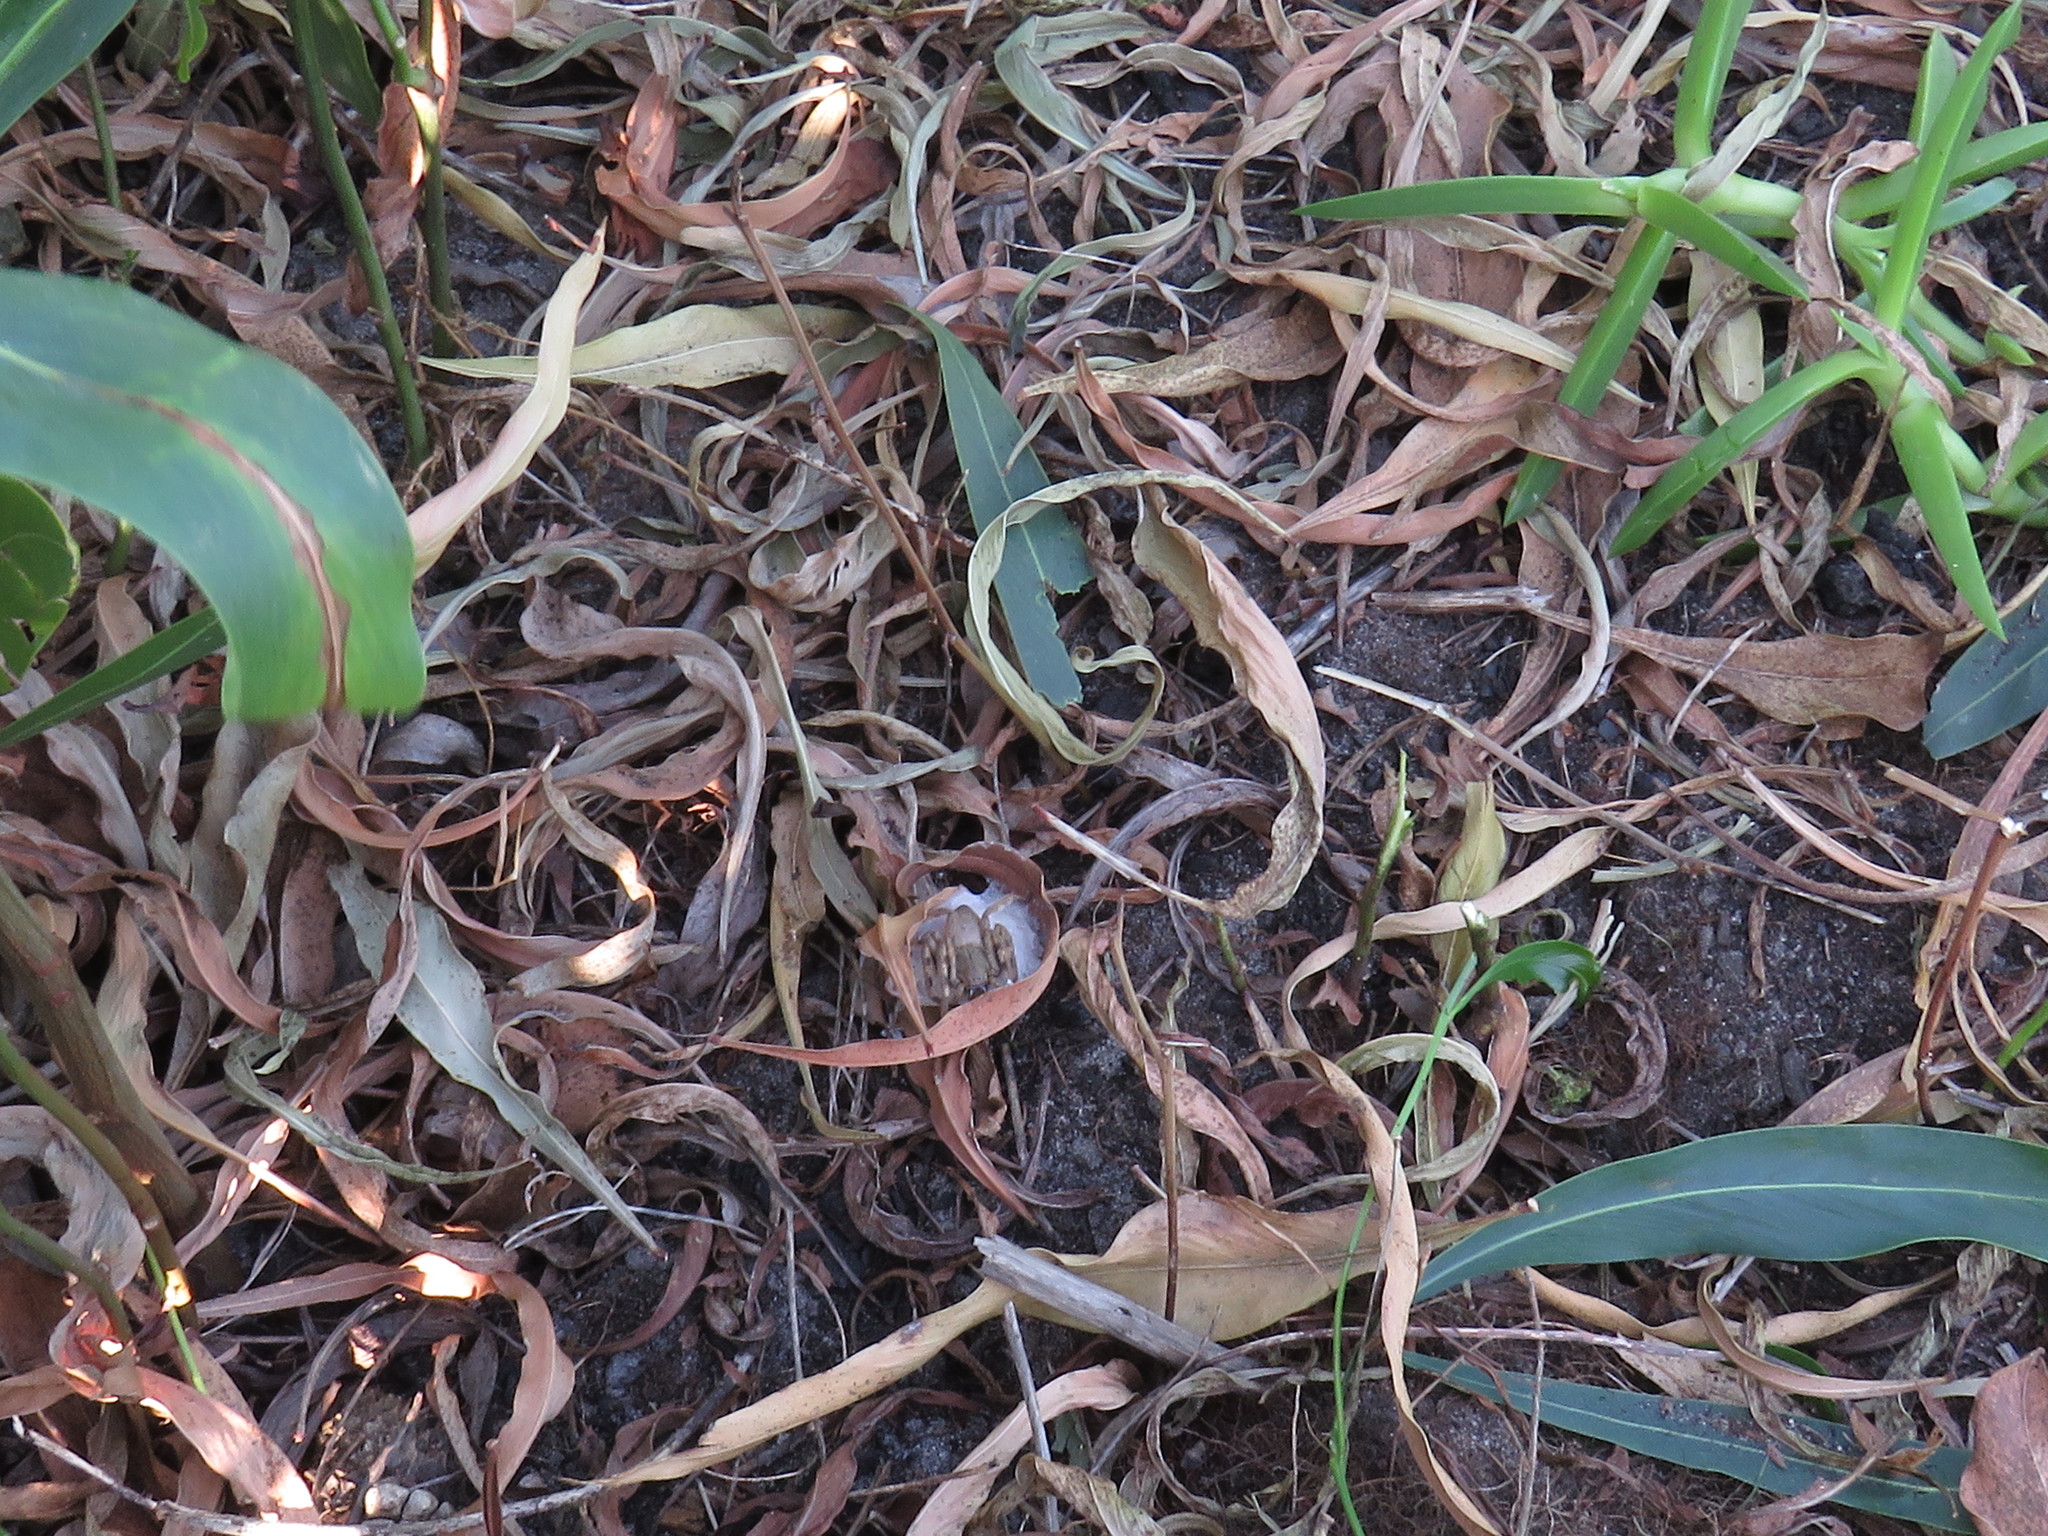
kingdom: Animalia
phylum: Arthropoda
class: Arachnida
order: Araneae
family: Sparassidae
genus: Palystes
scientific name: Palystes superciliosus
